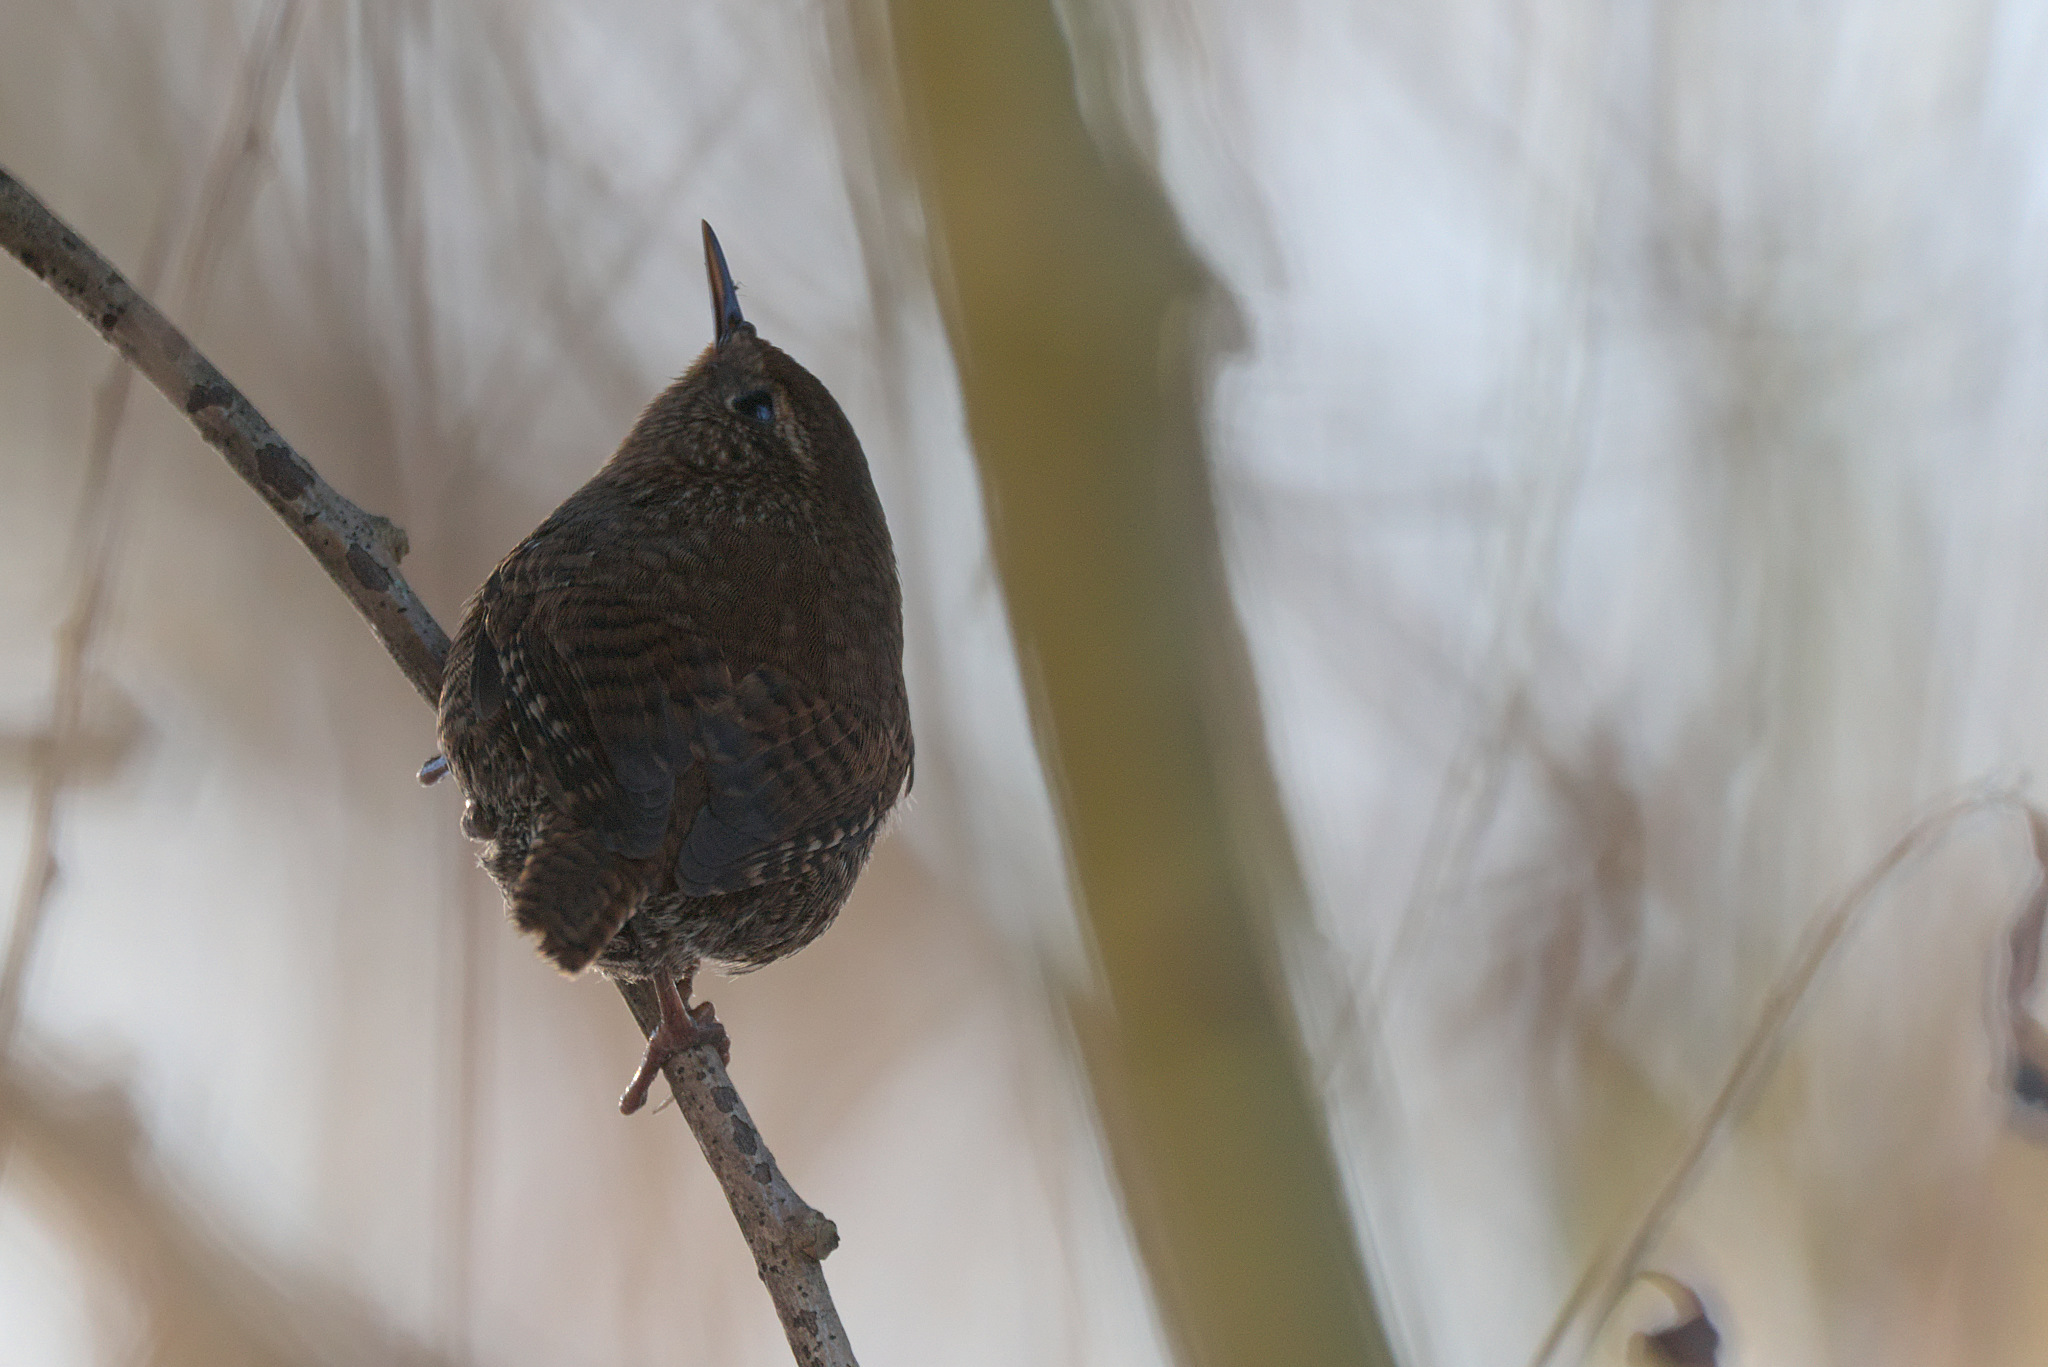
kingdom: Animalia
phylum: Chordata
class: Aves
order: Passeriformes
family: Troglodytidae
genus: Troglodytes
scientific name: Troglodytes pacificus
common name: Pacific wren
